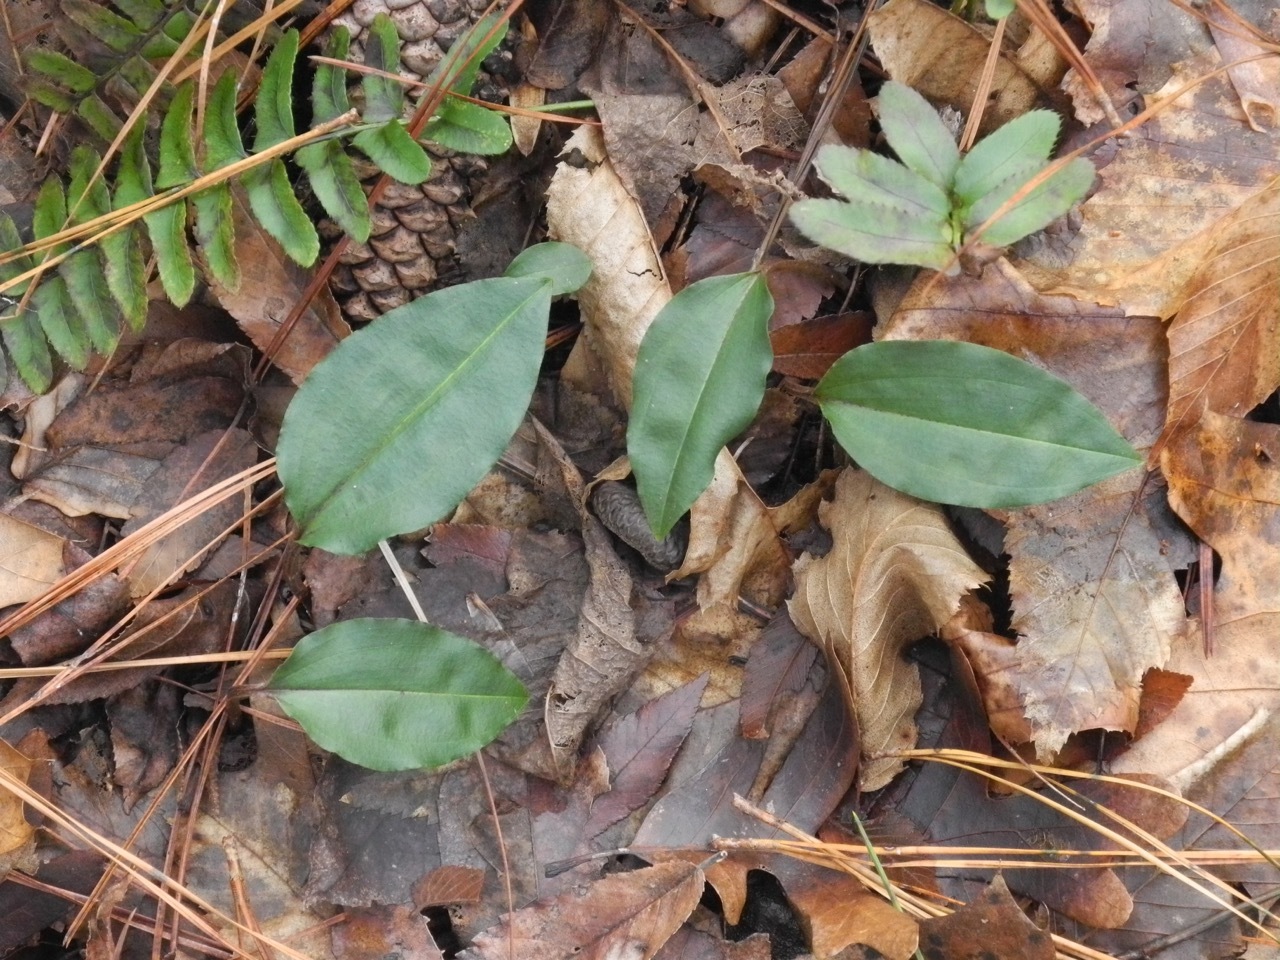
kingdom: Plantae
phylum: Tracheophyta
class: Liliopsida
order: Asparagales
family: Orchidaceae
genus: Tipularia
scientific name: Tipularia discolor
